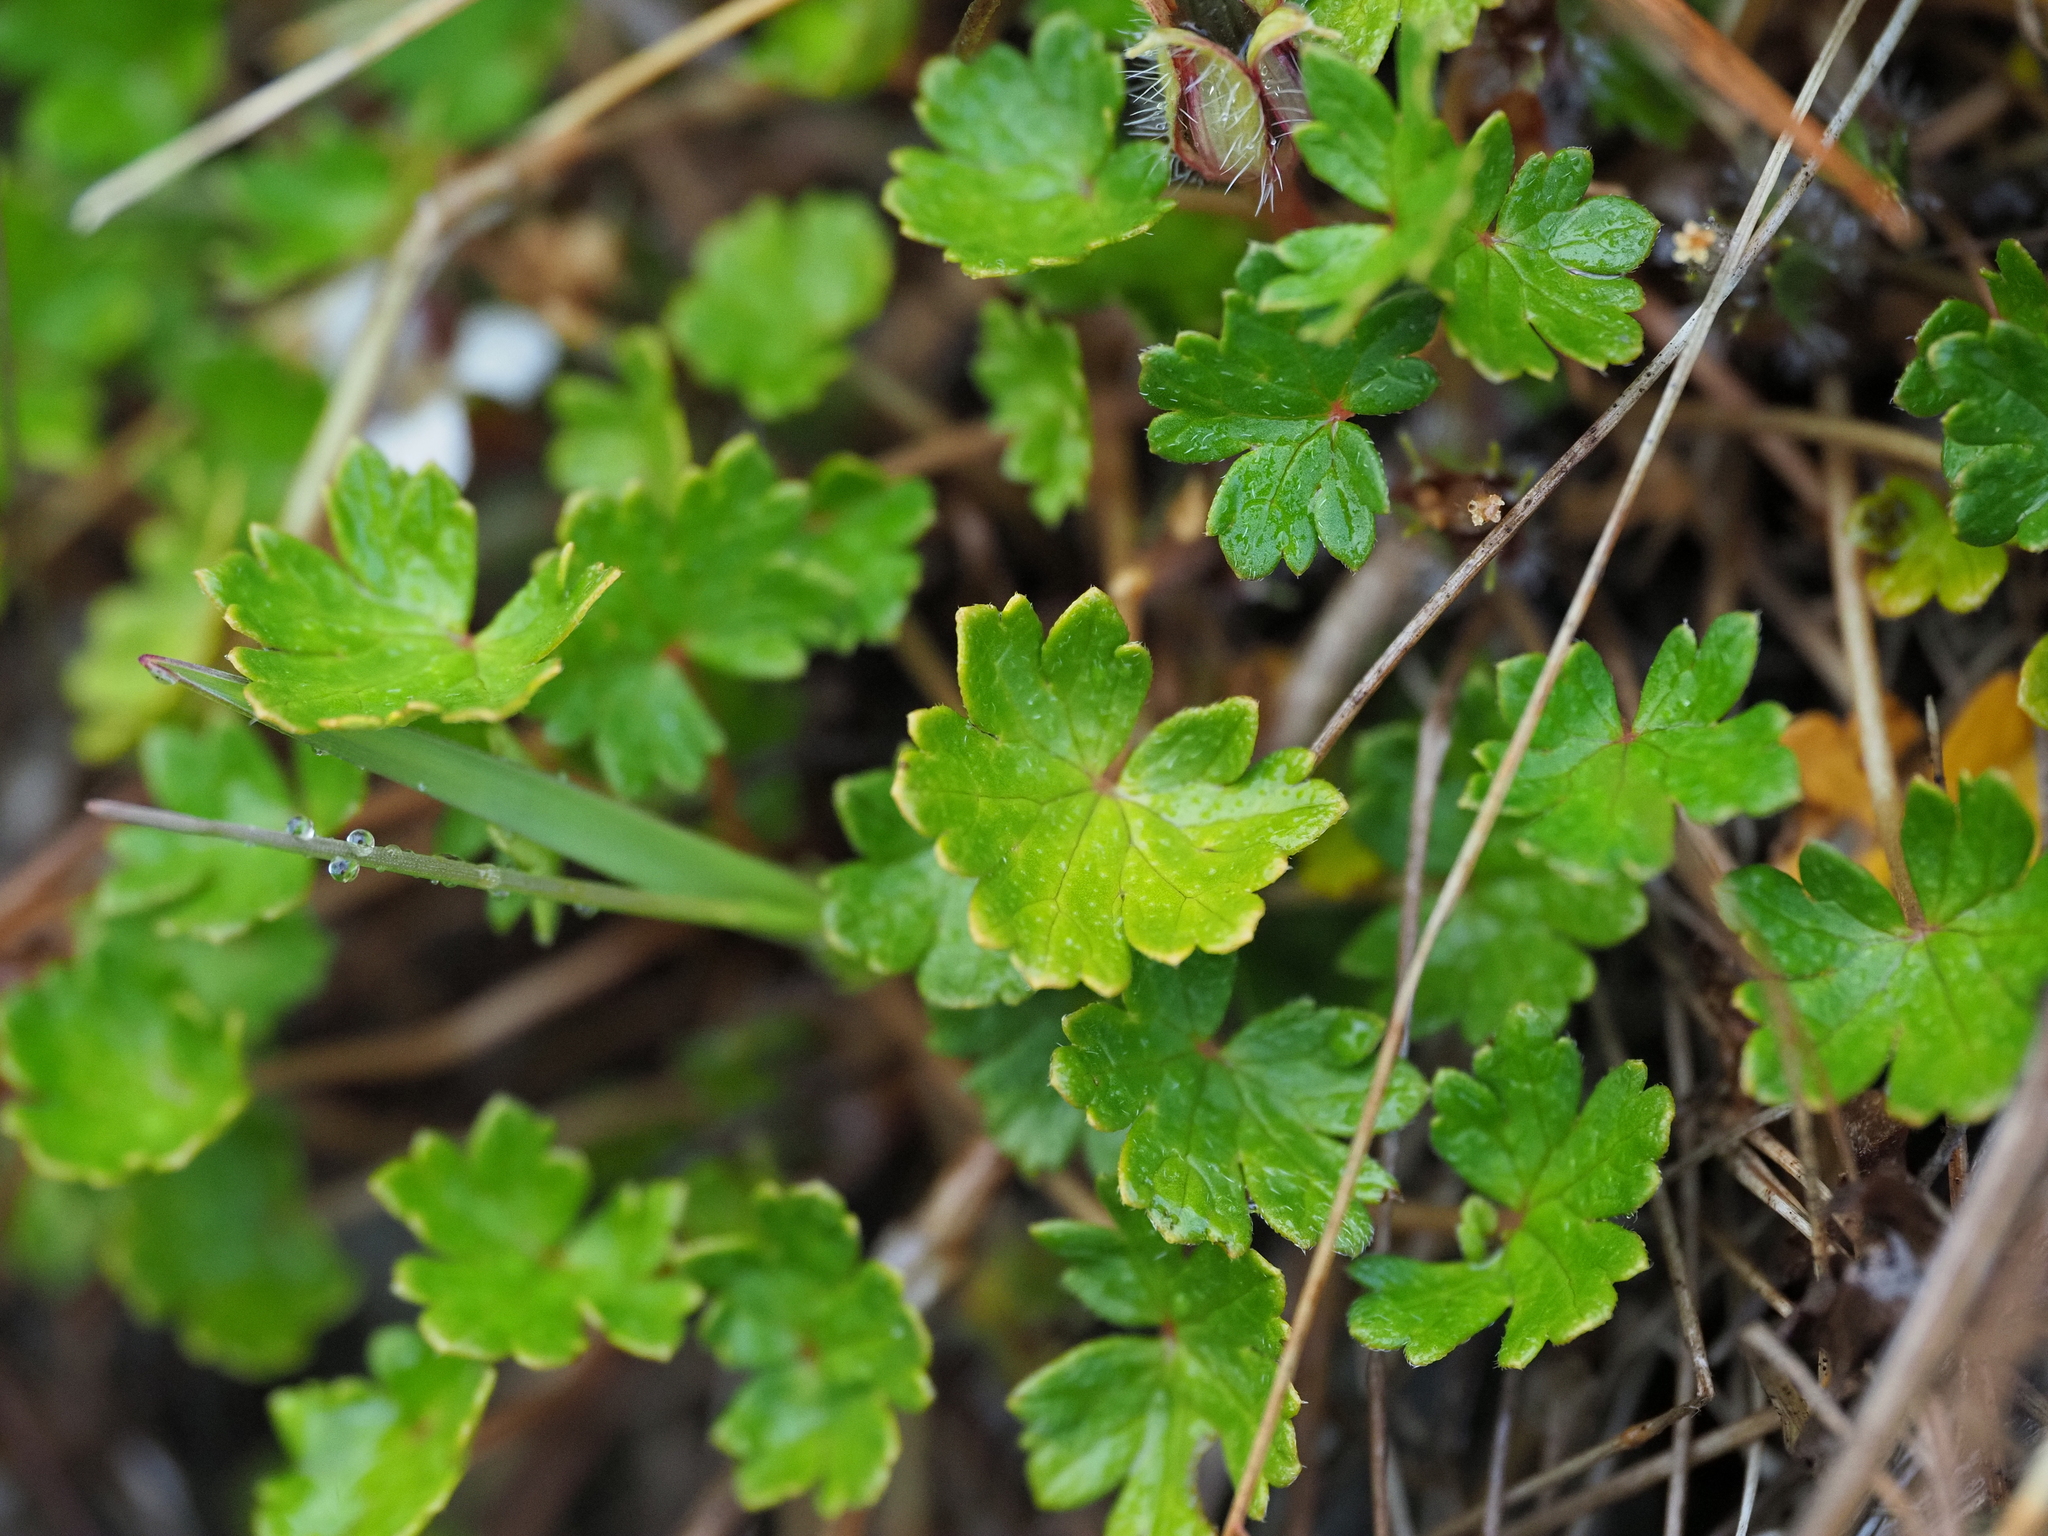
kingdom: Plantae
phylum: Tracheophyta
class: Magnoliopsida
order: Geraniales
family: Geraniaceae
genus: Geranium
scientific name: Geranium brevicaule
